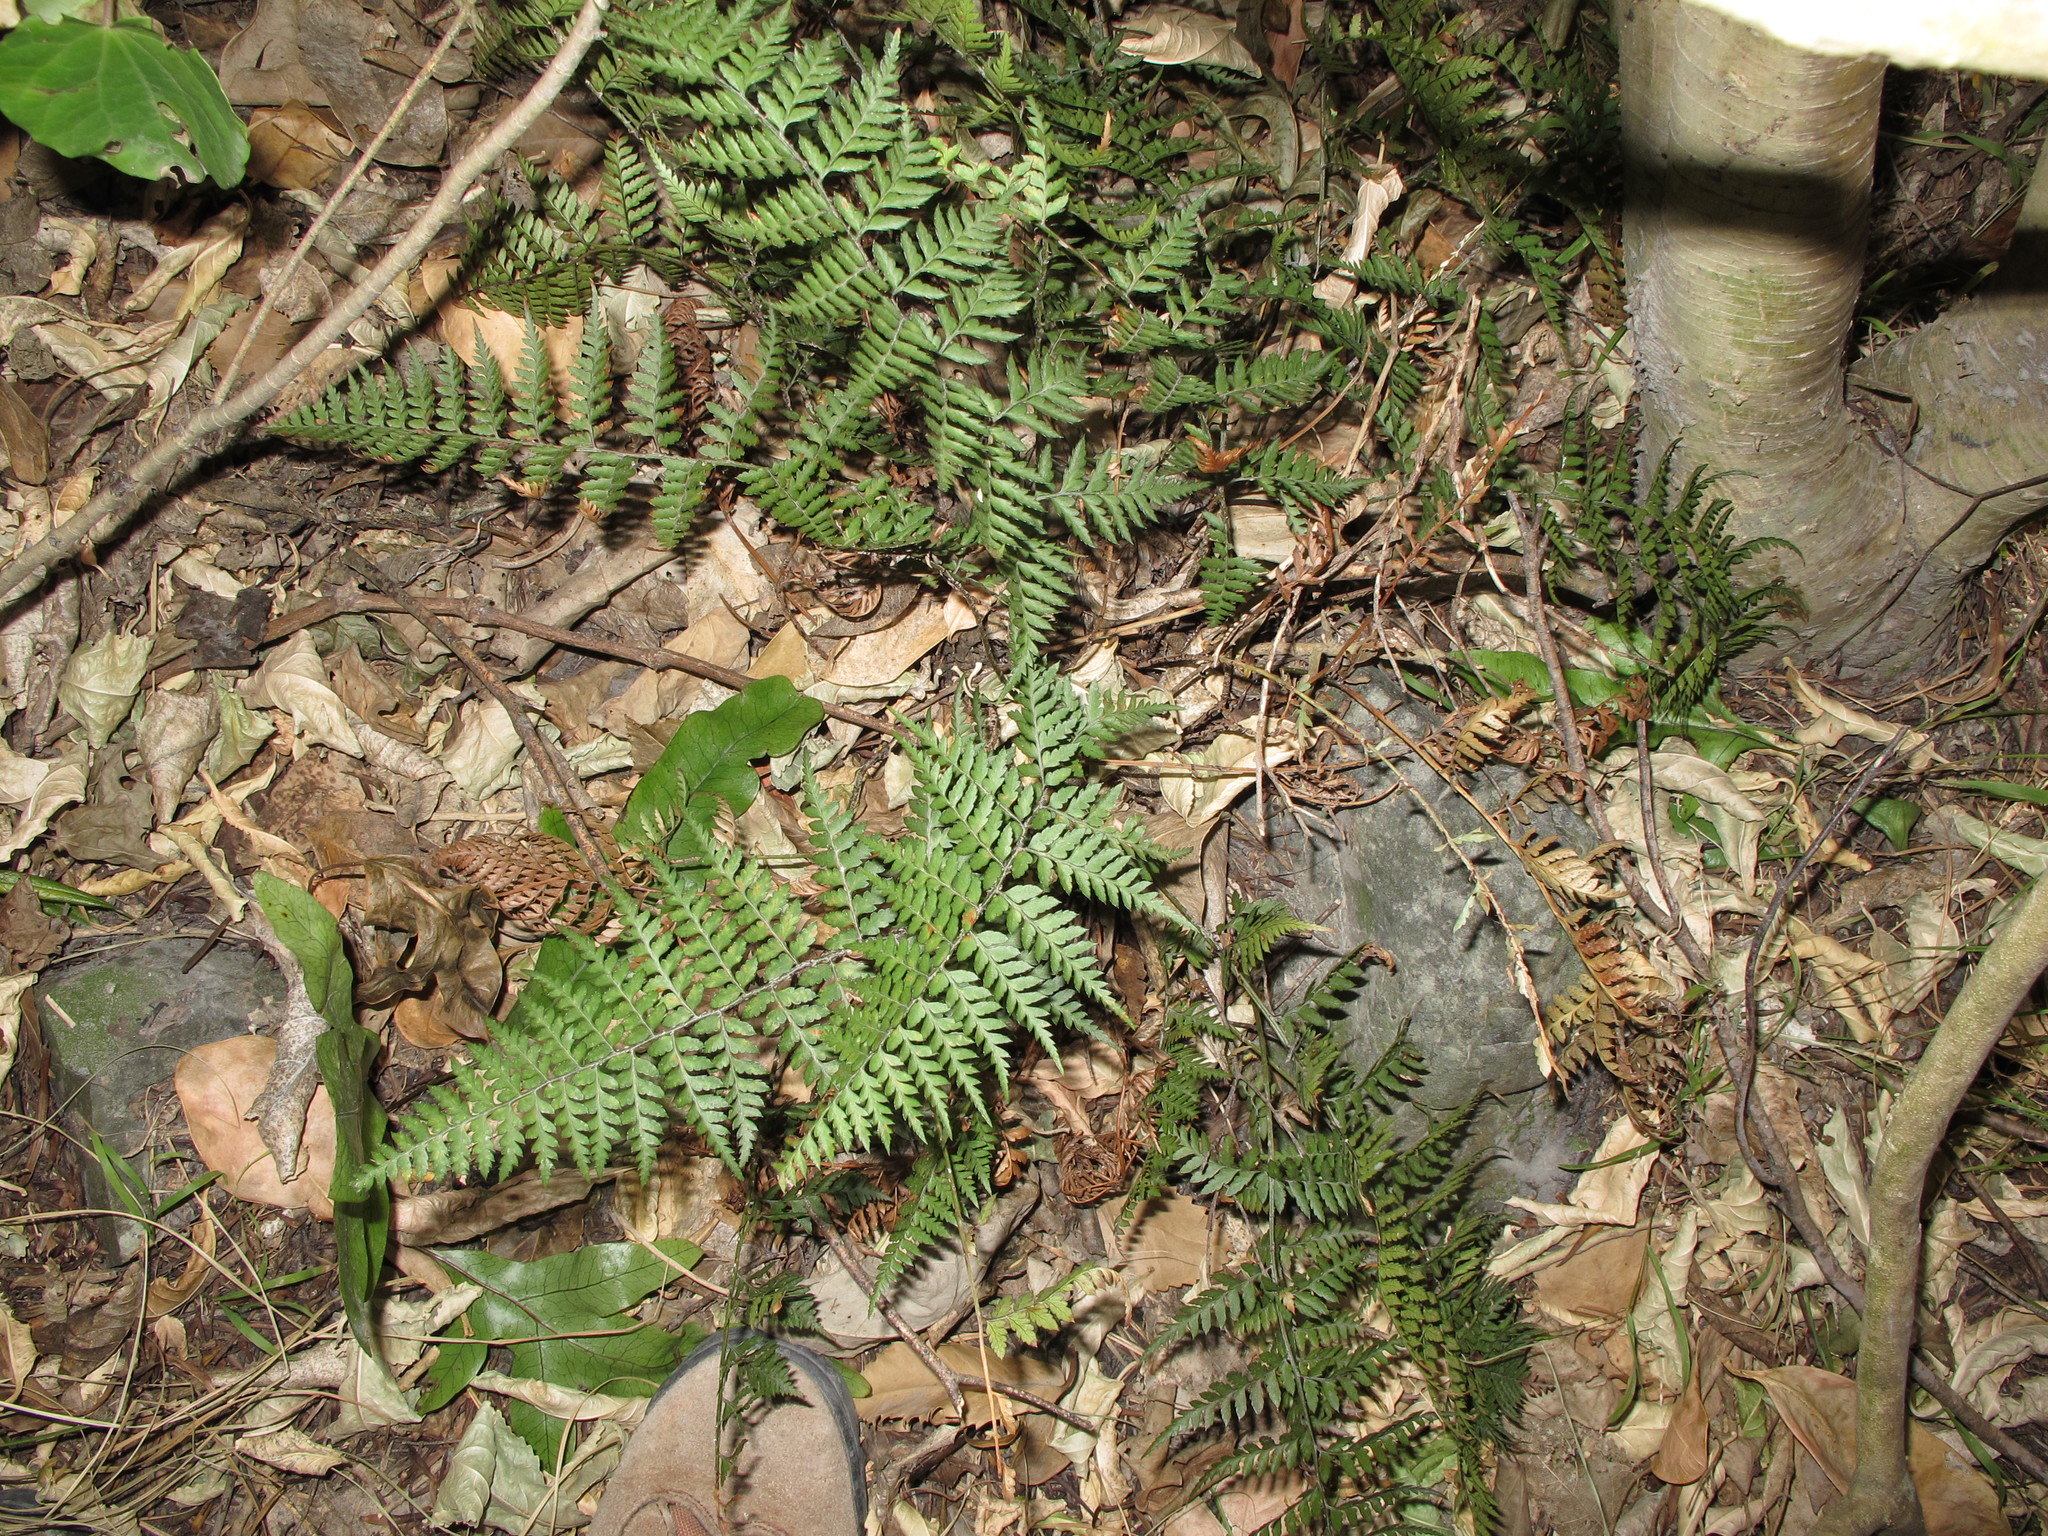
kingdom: Plantae
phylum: Tracheophyta
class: Polypodiopsida
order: Polypodiales
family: Dryopteridaceae
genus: Polystichum
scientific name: Polystichum oculatum
